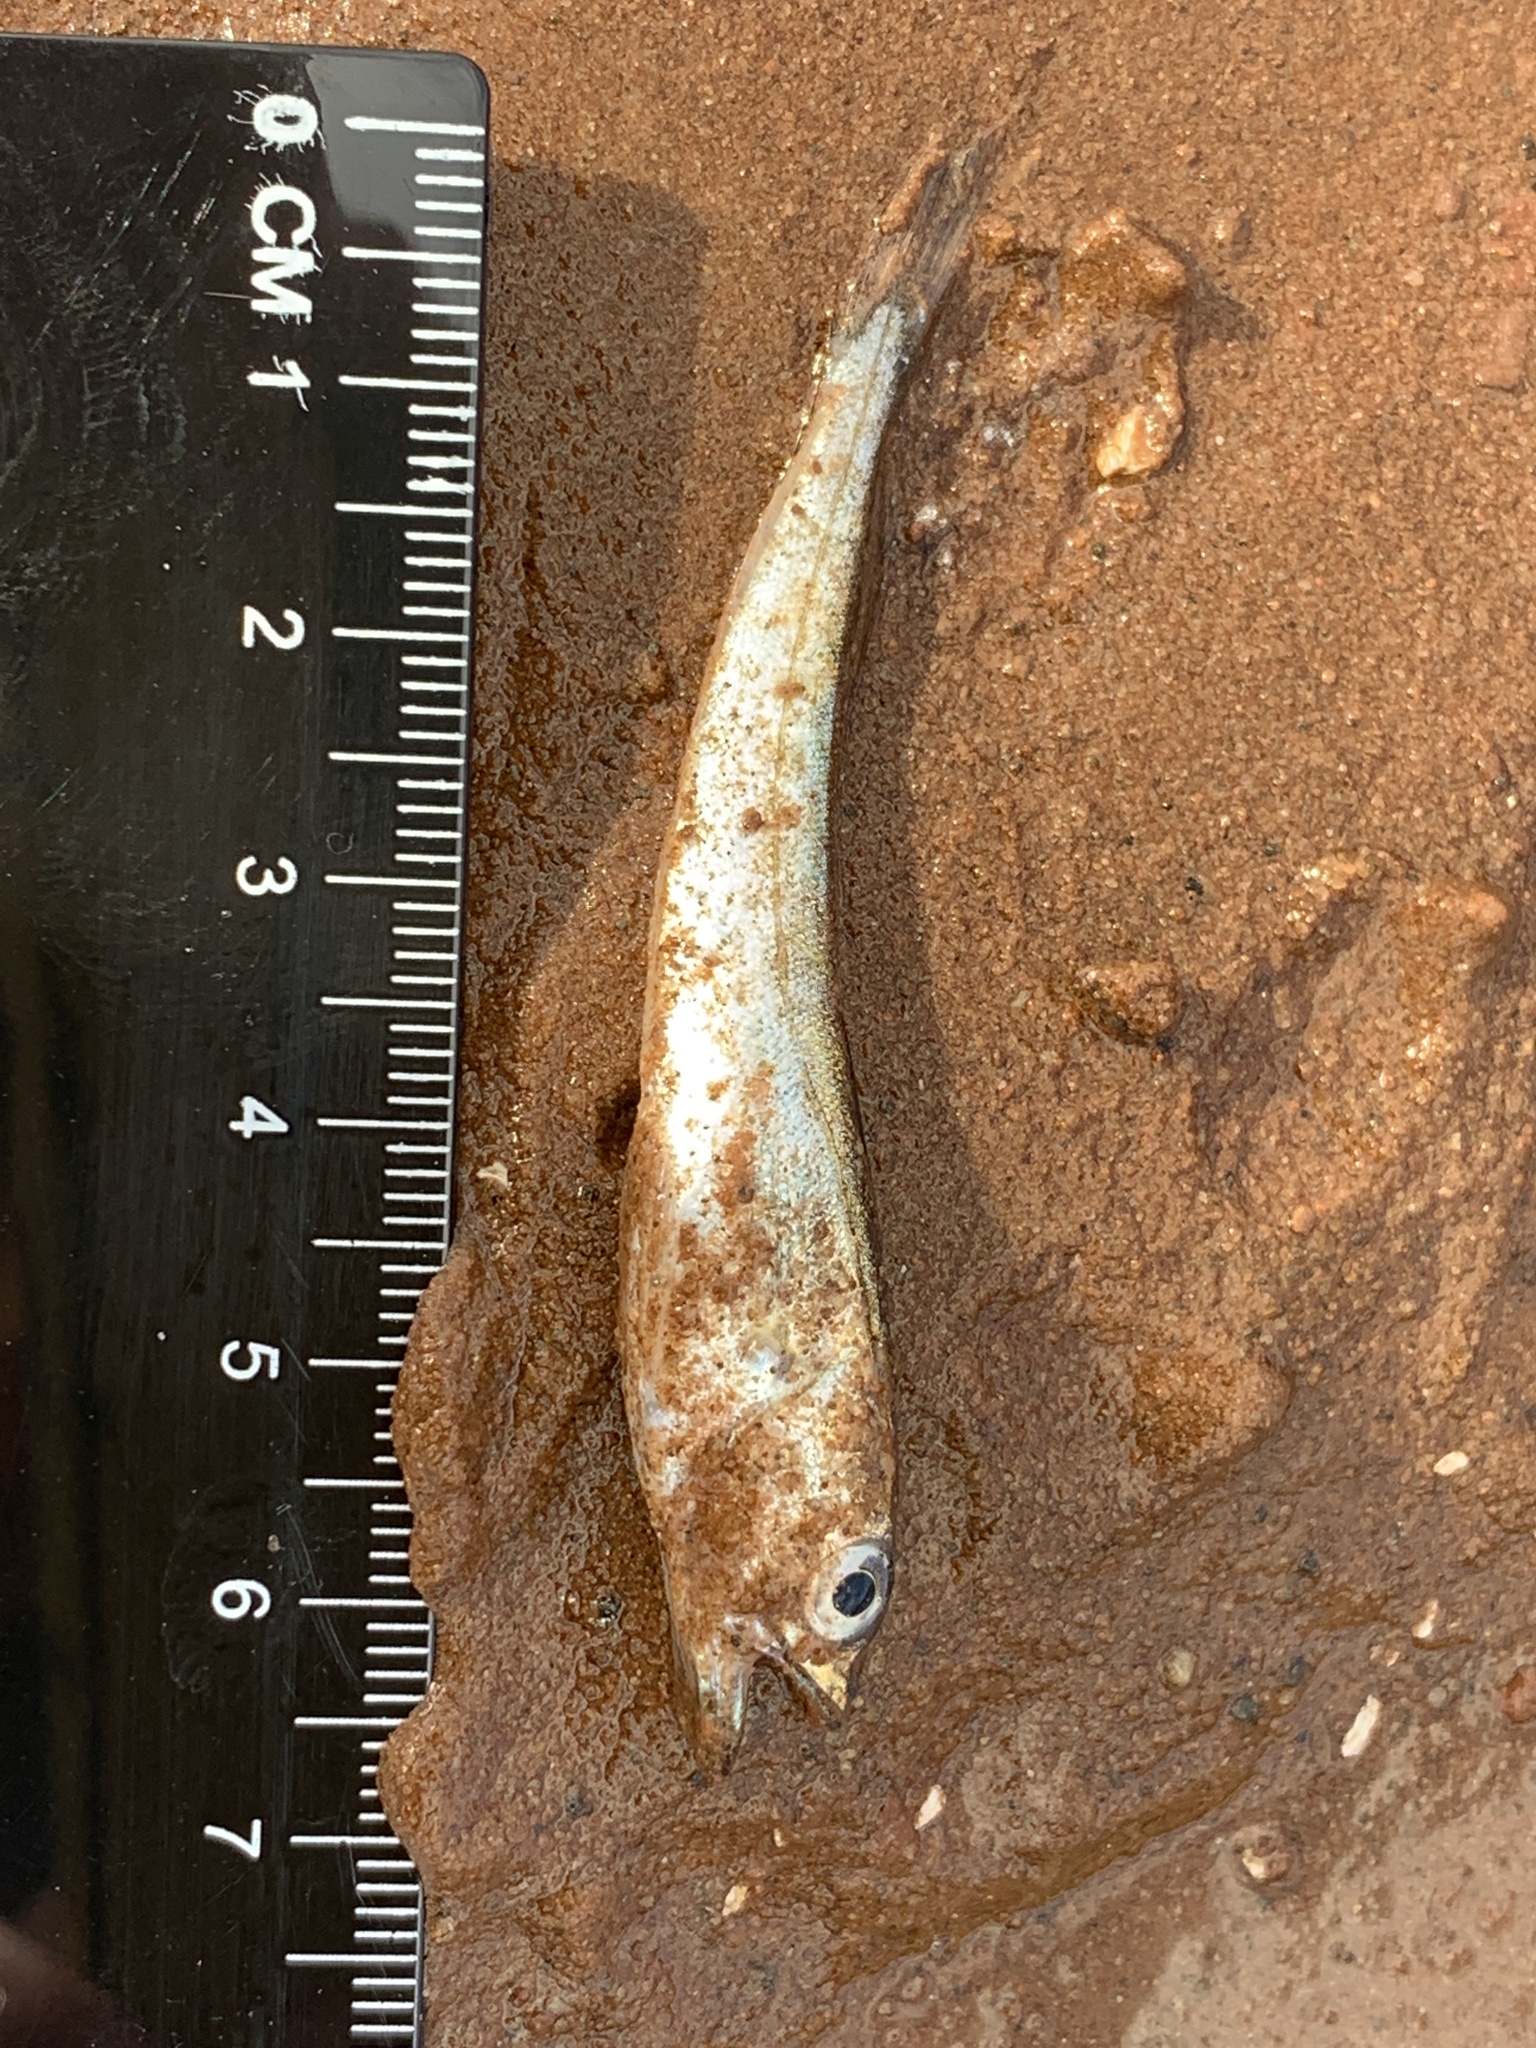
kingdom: Animalia
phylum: Chordata
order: Gadiformes
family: Merlucciidae
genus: Merluccius
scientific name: Merluccius bilinearis
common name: Silver hake
